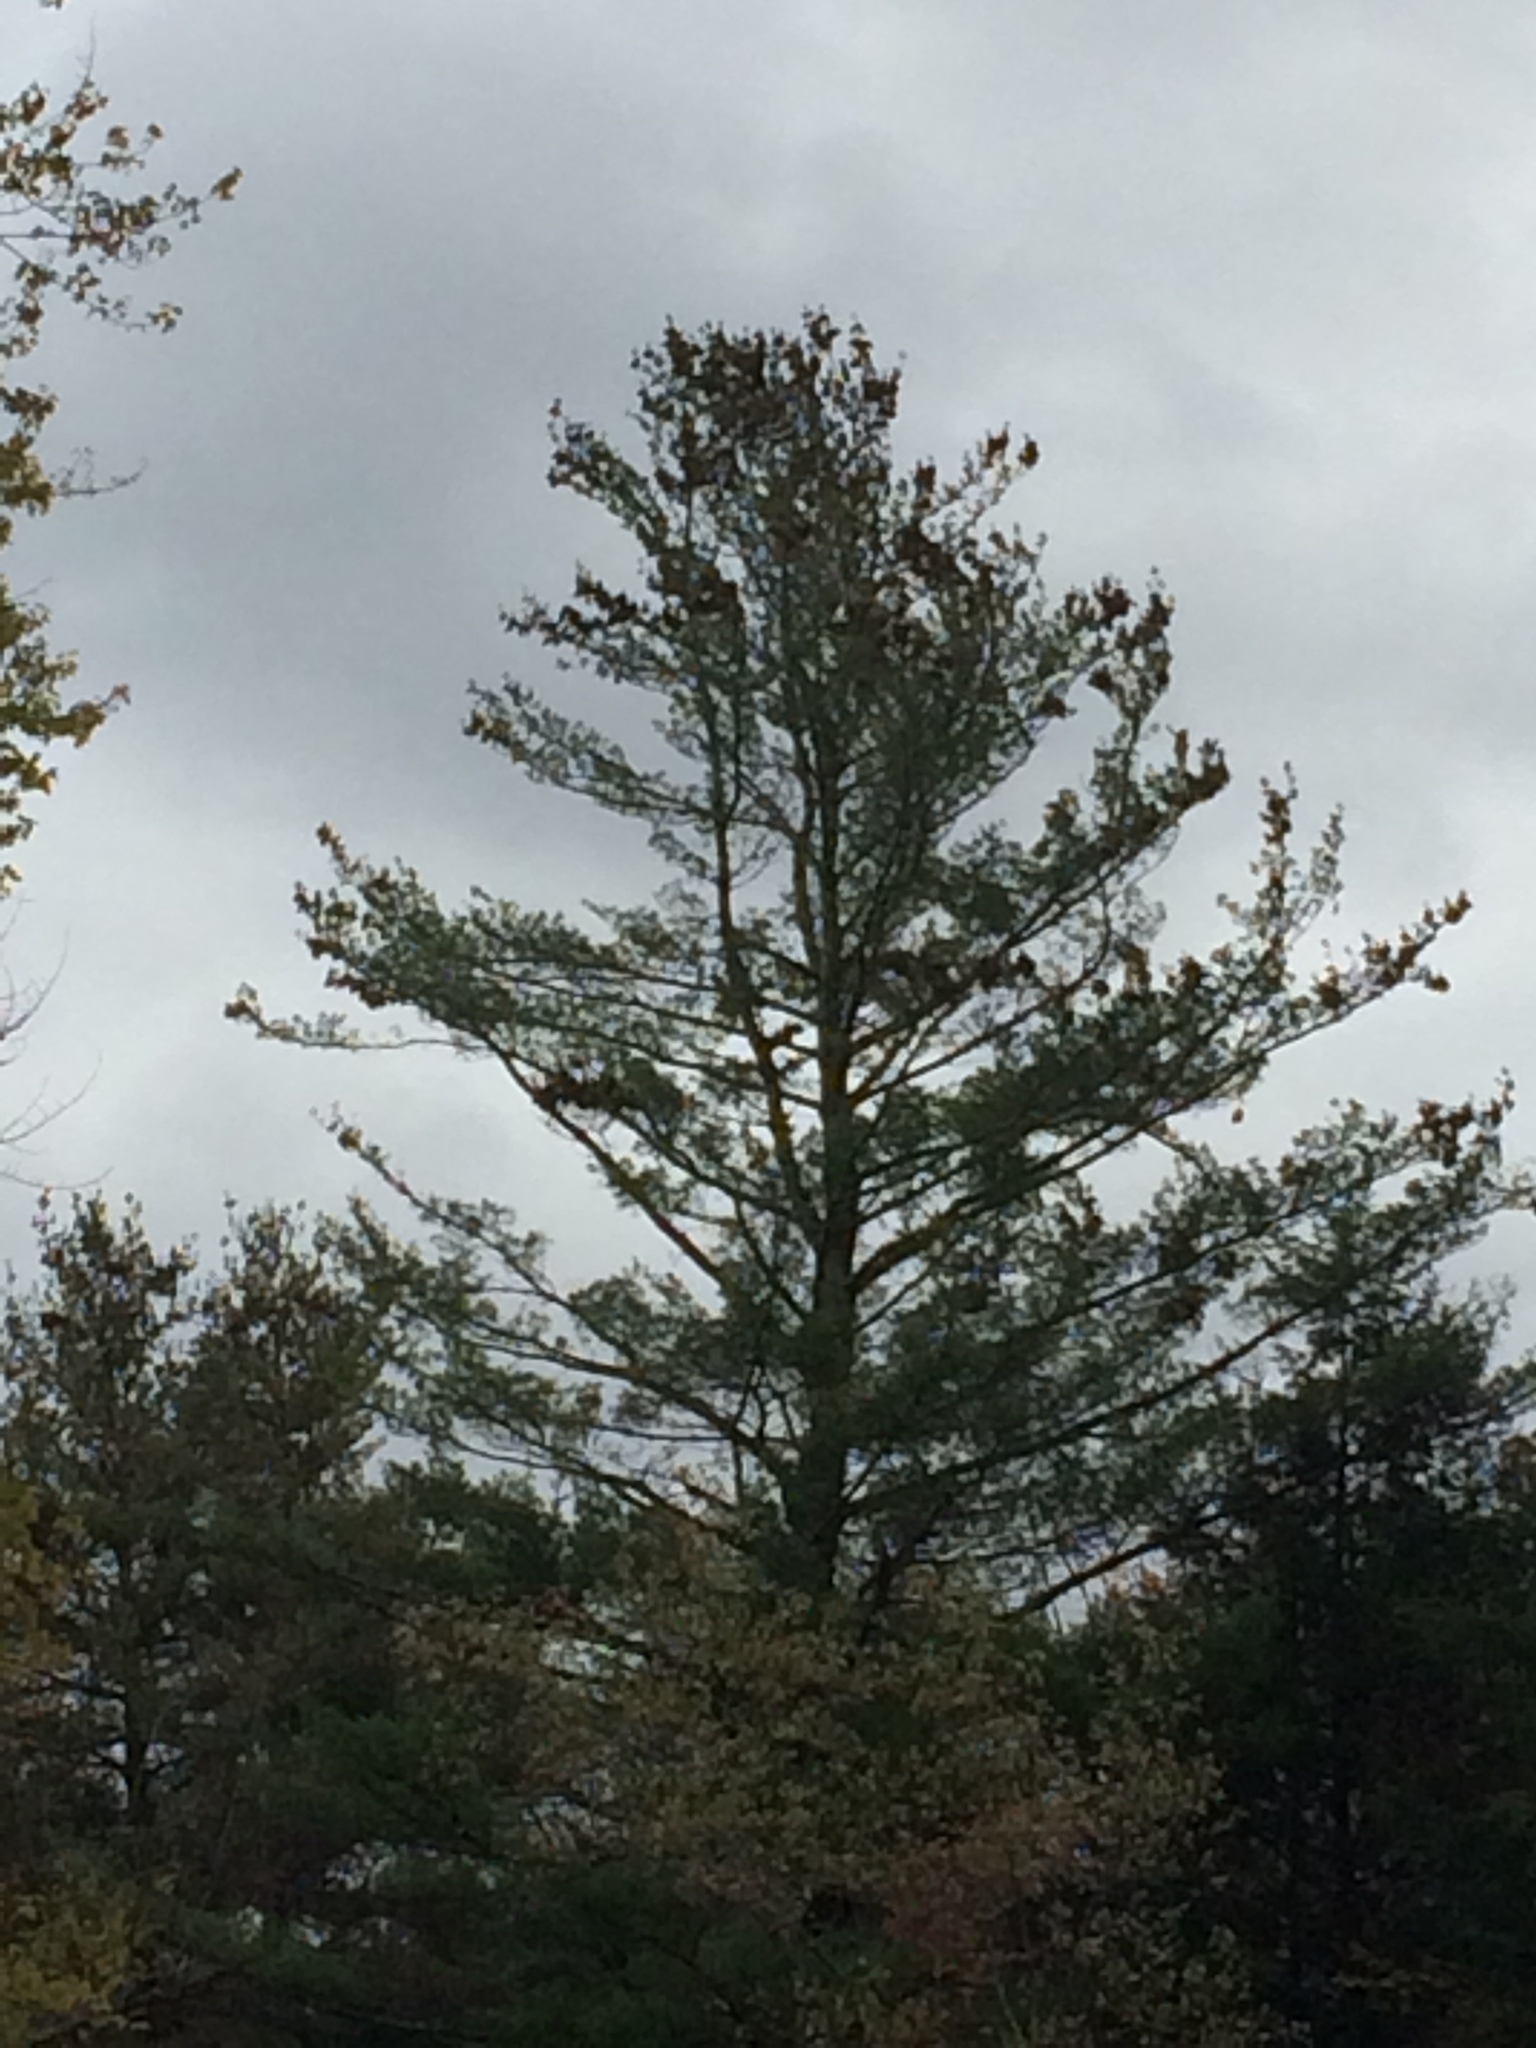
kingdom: Plantae
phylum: Tracheophyta
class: Pinopsida
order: Pinales
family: Pinaceae
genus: Pinus
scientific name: Pinus strobus
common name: Weymouth pine
